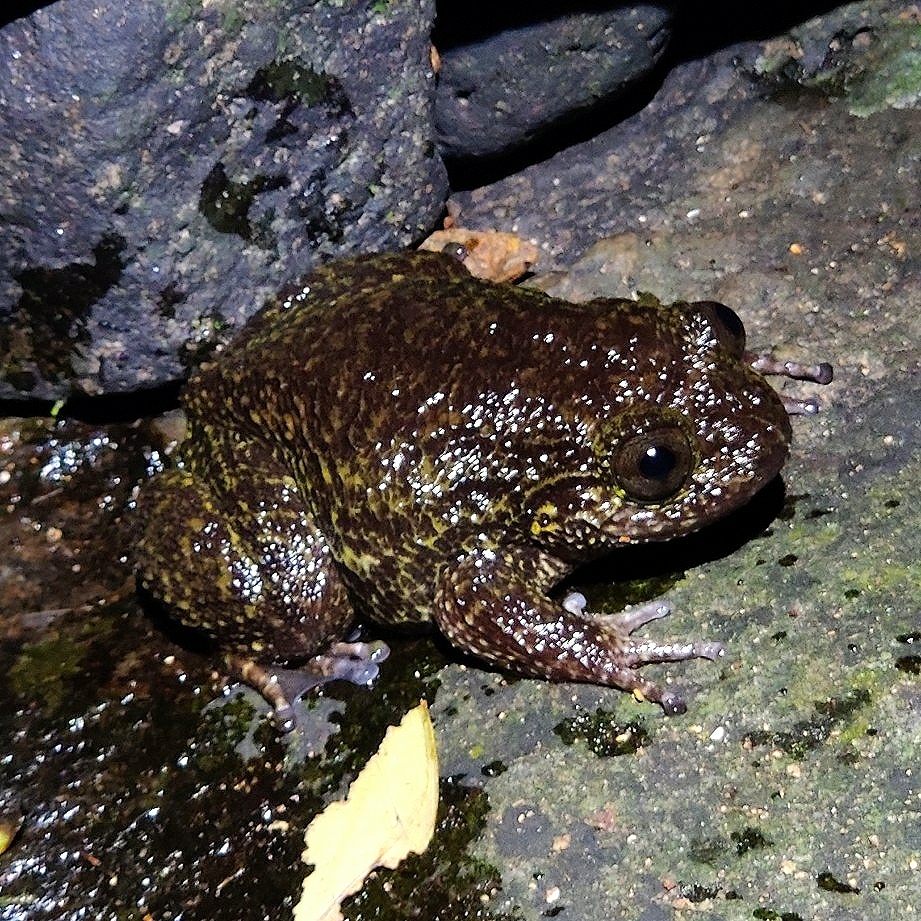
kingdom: Animalia
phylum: Chordata
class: Amphibia
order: Anura
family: Nyctibatrachidae
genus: Nyctibatrachus
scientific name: Nyctibatrachus grandis
